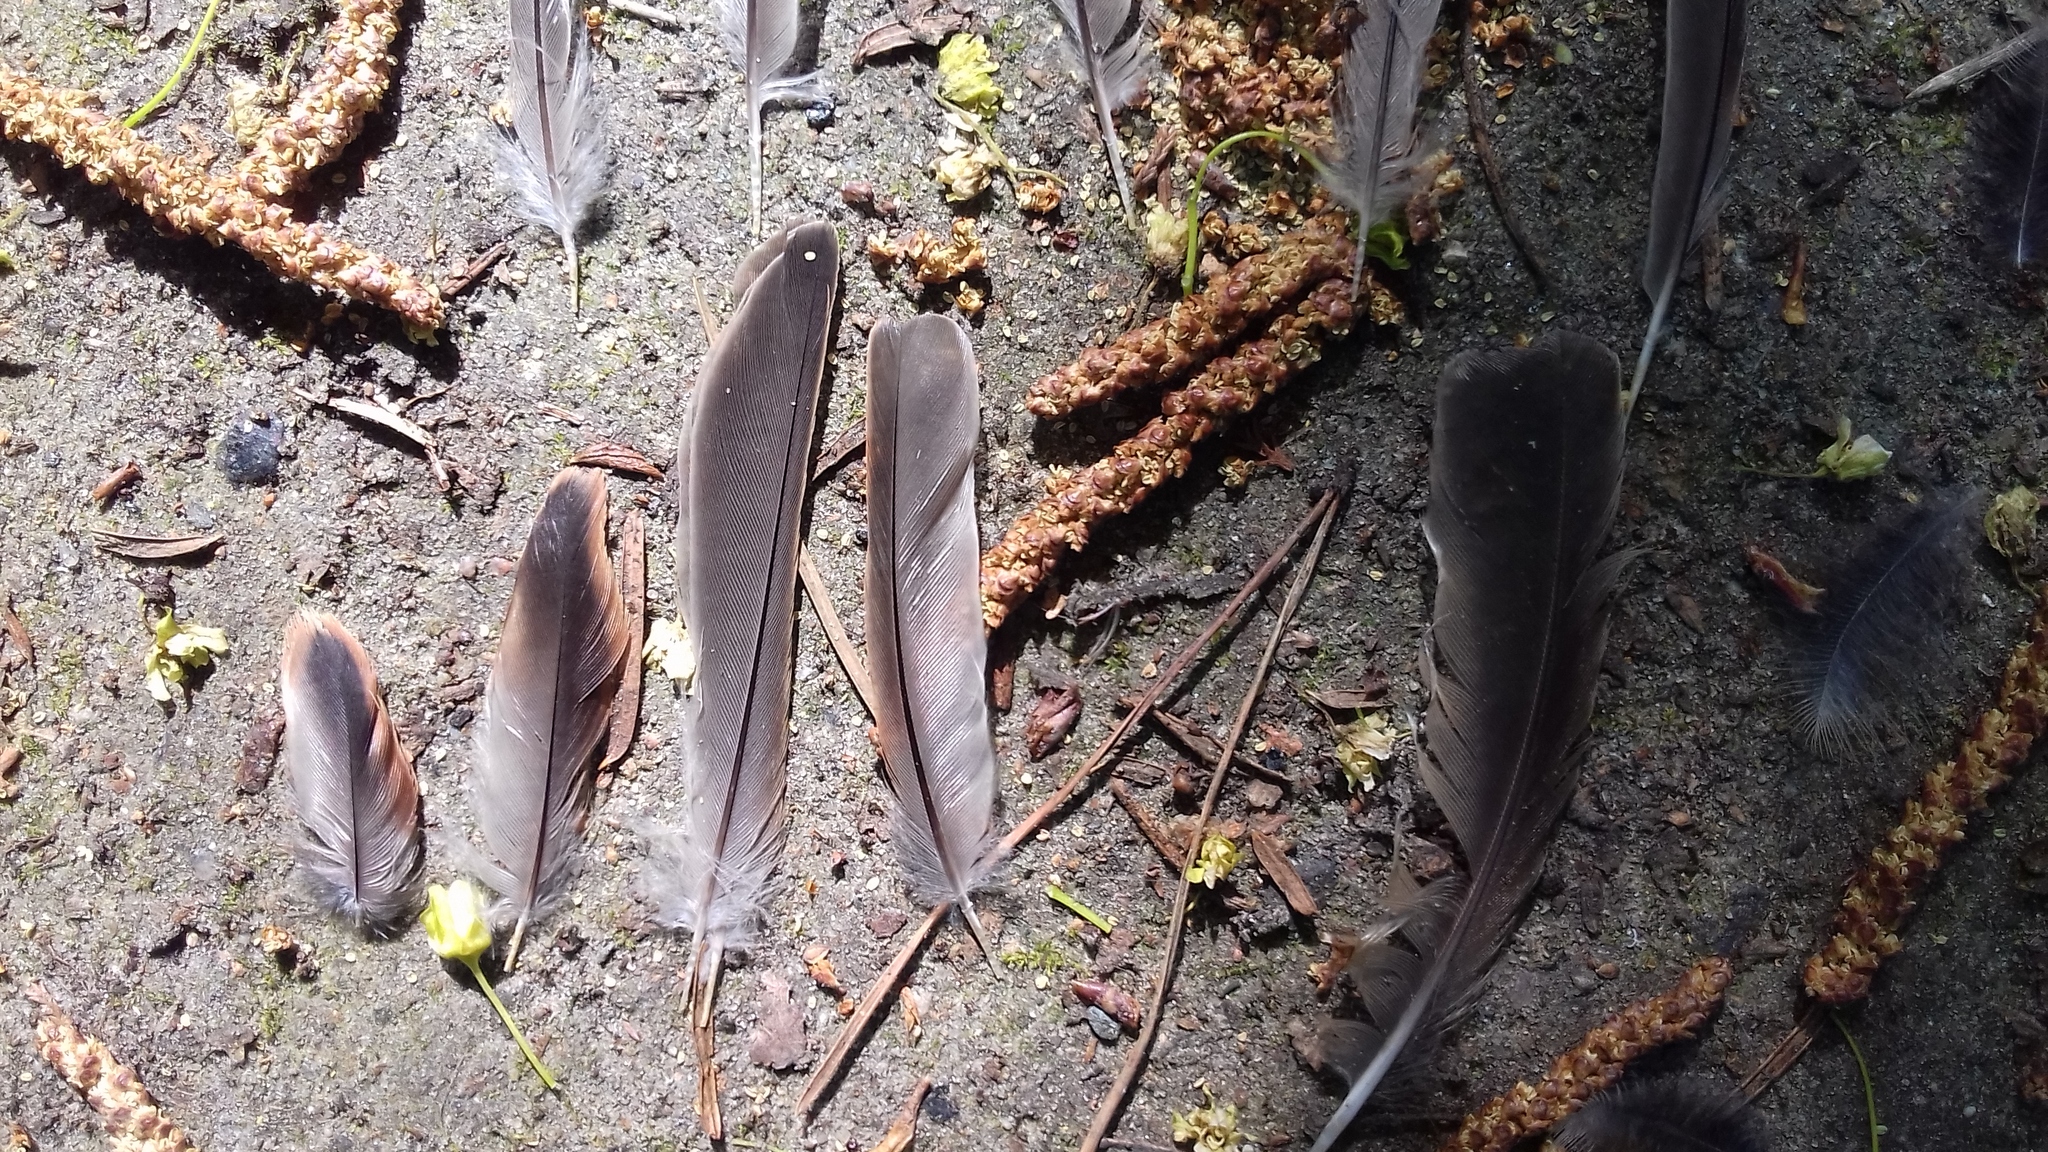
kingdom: Animalia
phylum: Chordata
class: Aves
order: Passeriformes
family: Passeridae
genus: Passer
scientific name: Passer domesticus
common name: House sparrow
